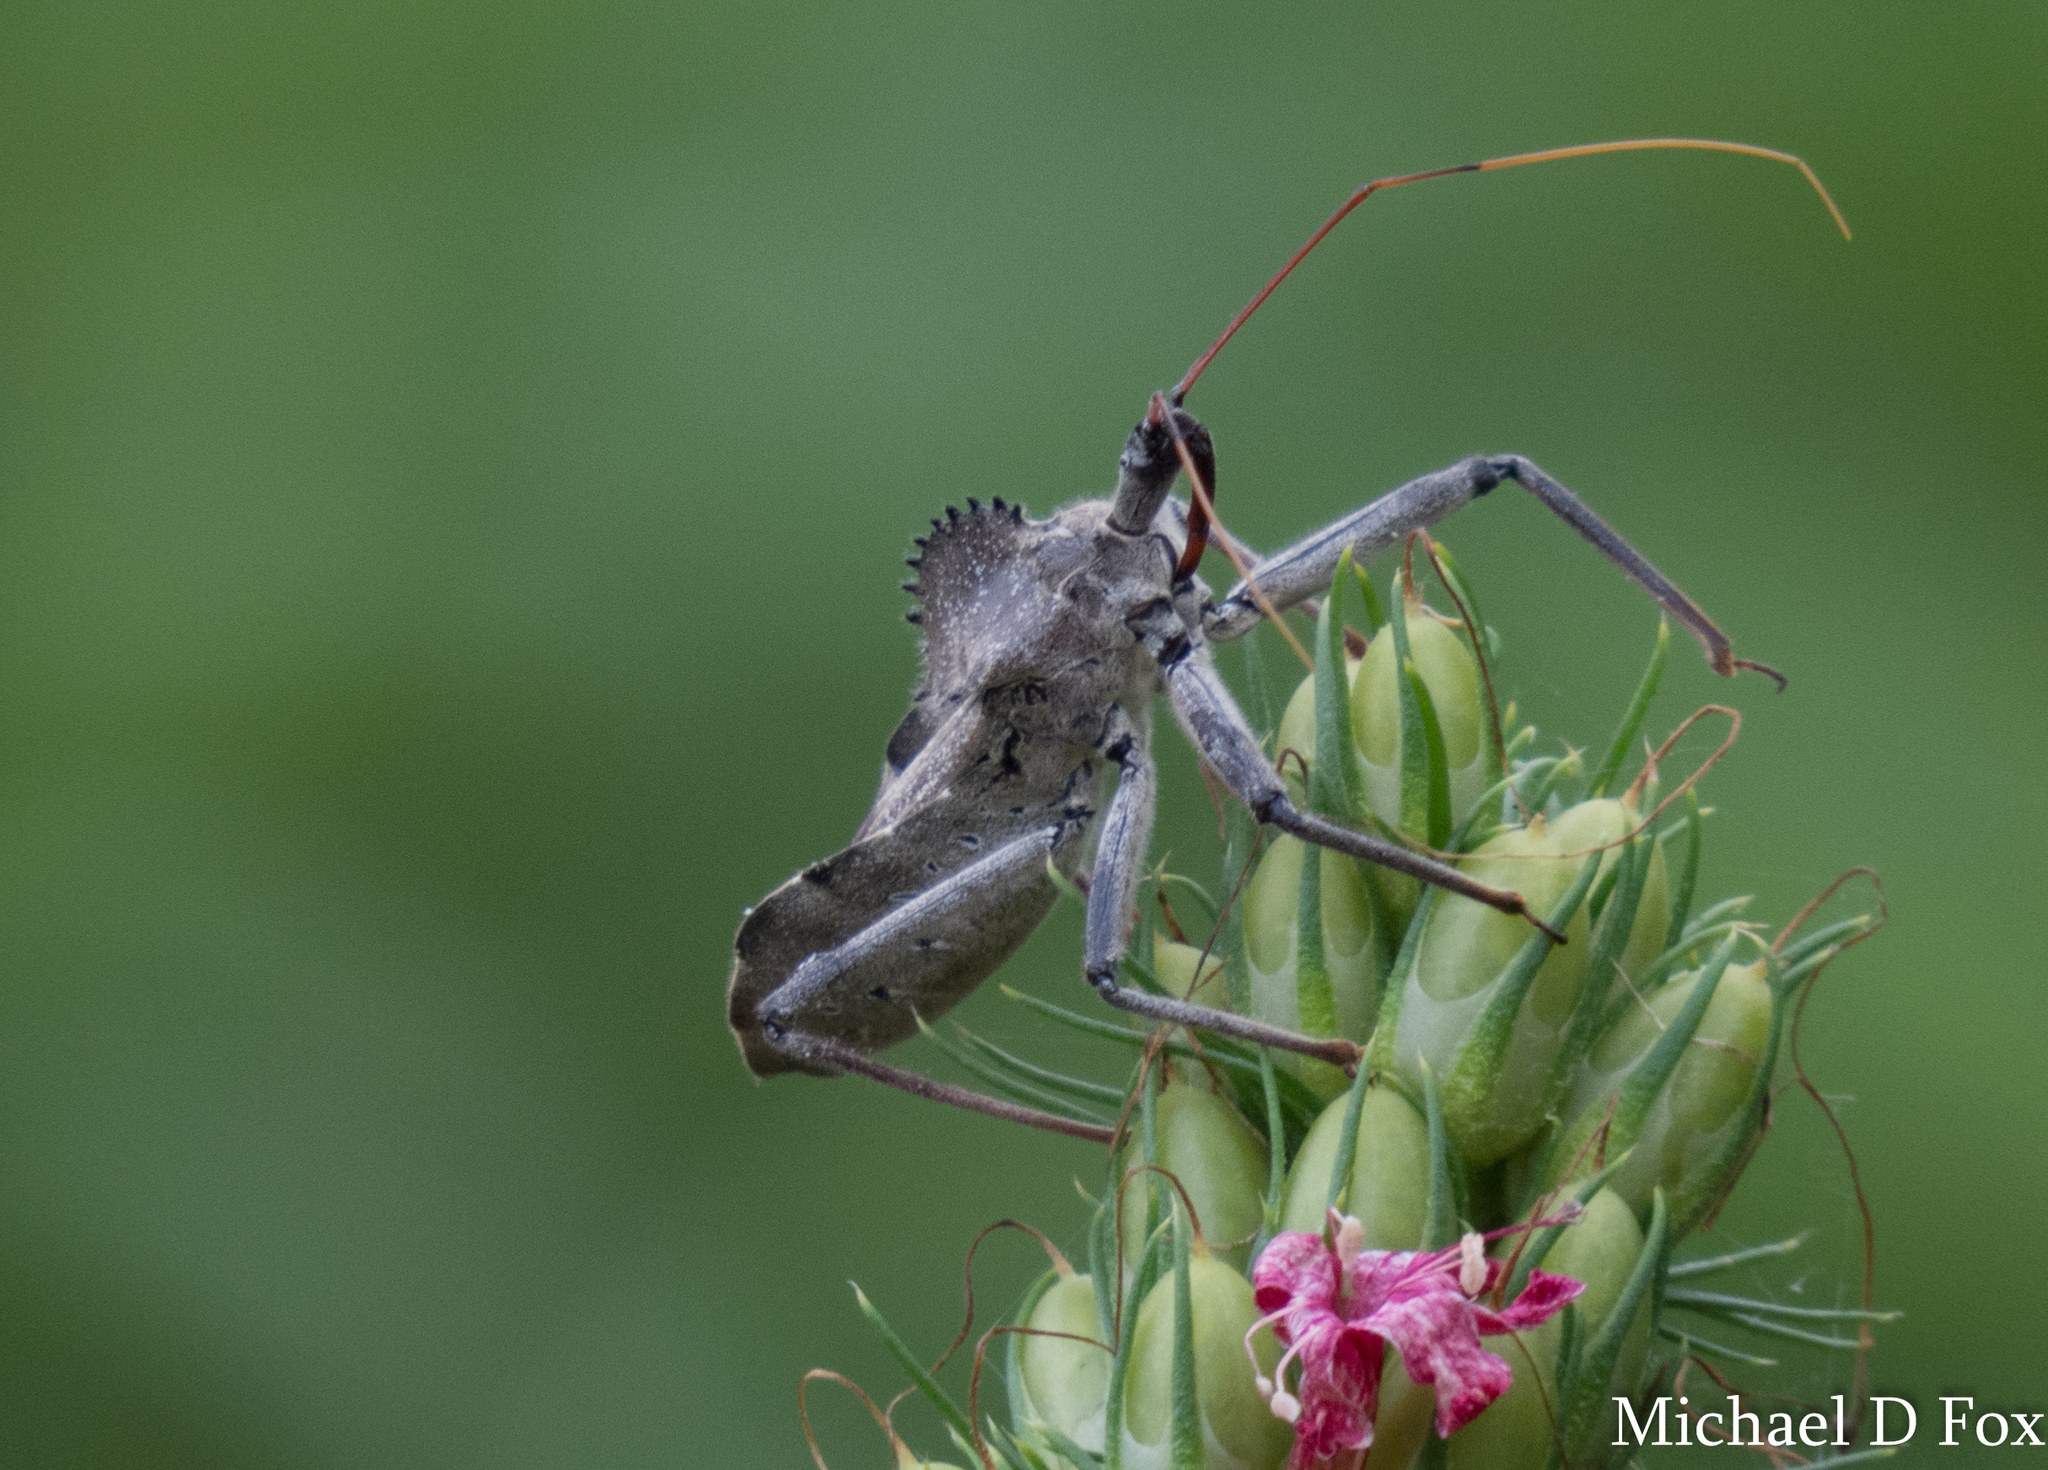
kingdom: Animalia
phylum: Arthropoda
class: Insecta
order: Hemiptera
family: Reduviidae
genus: Arilus
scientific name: Arilus cristatus
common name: North american wheel bug
